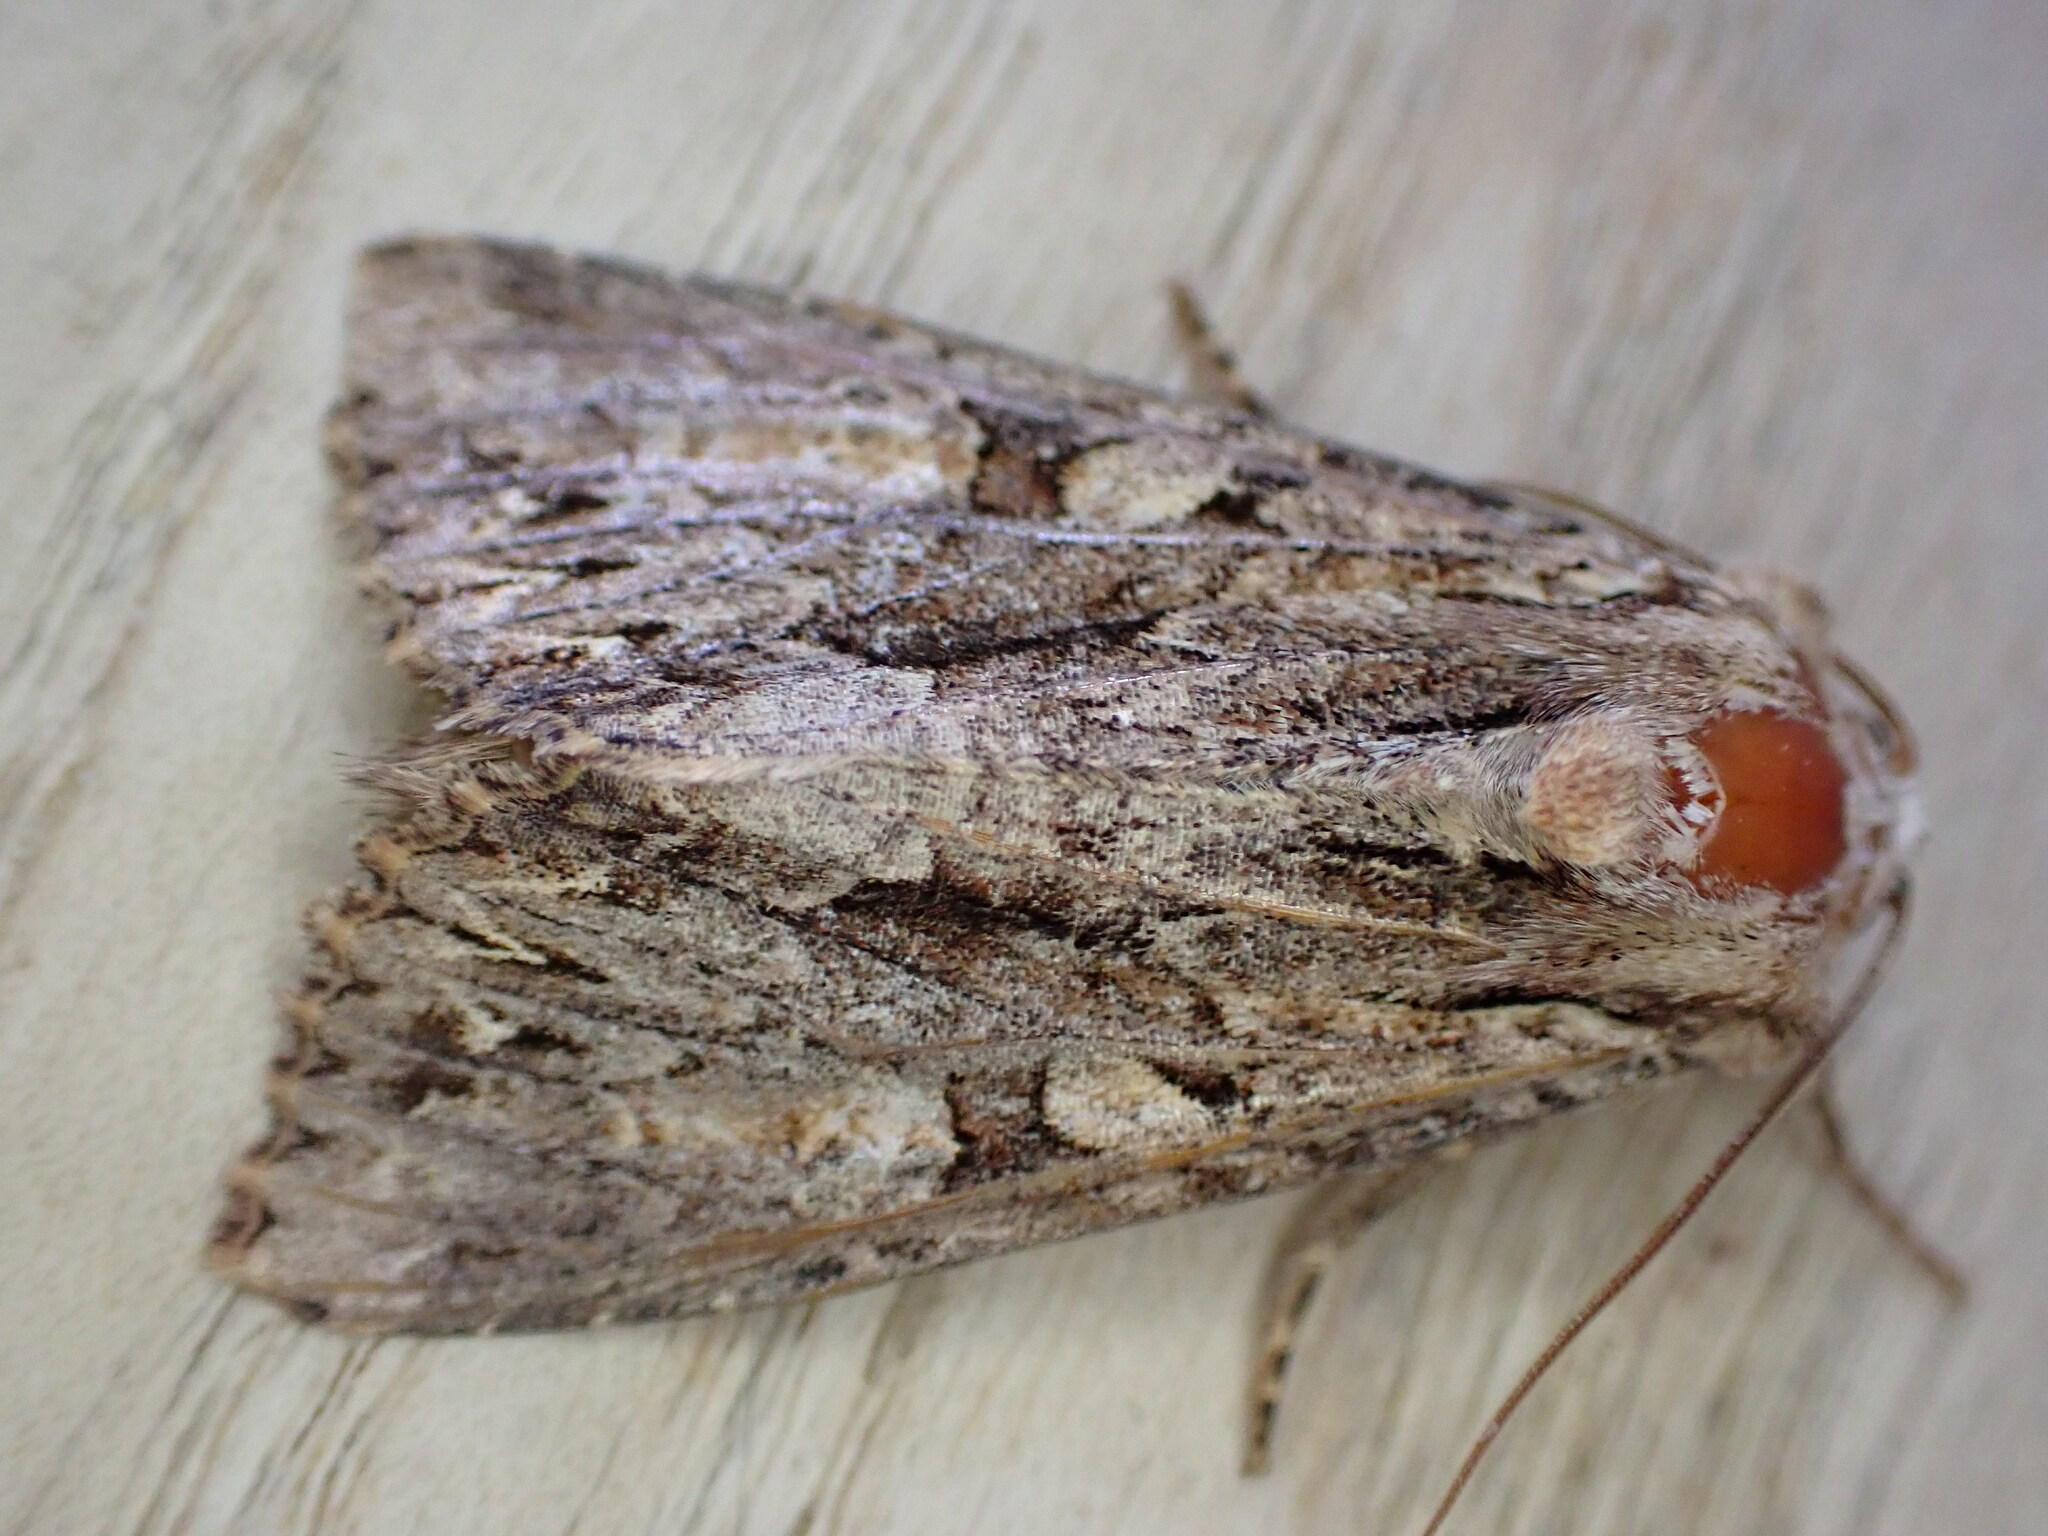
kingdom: Animalia
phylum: Arthropoda
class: Insecta
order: Lepidoptera
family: Noctuidae
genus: Apamea
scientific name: Apamea monoglypha
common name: Dark arches
